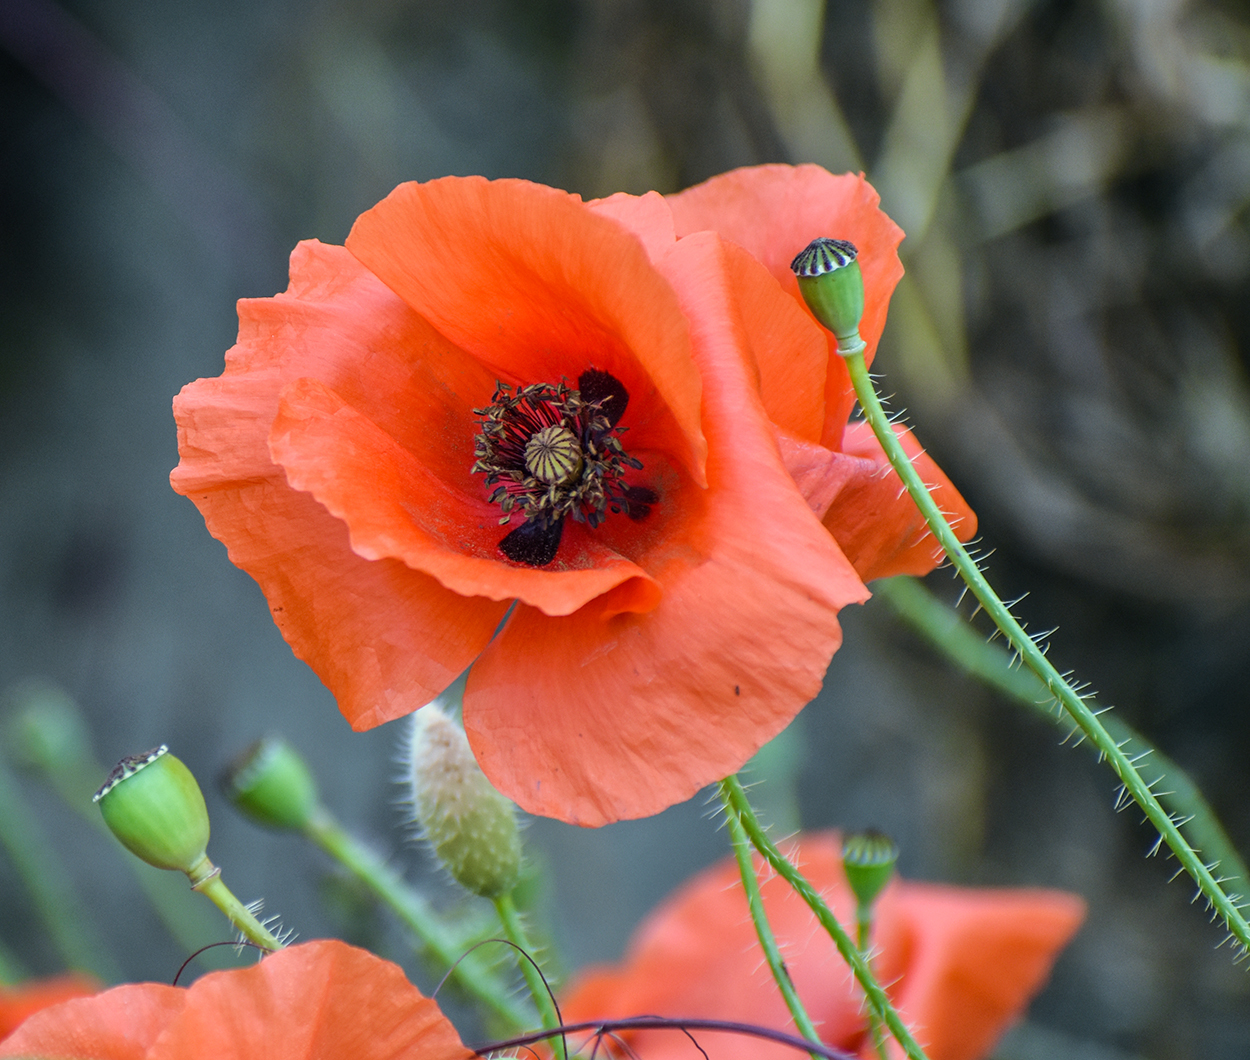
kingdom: Plantae
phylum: Tracheophyta
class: Magnoliopsida
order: Ranunculales
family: Papaveraceae
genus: Papaver
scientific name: Papaver rhoeas
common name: Corn poppy
